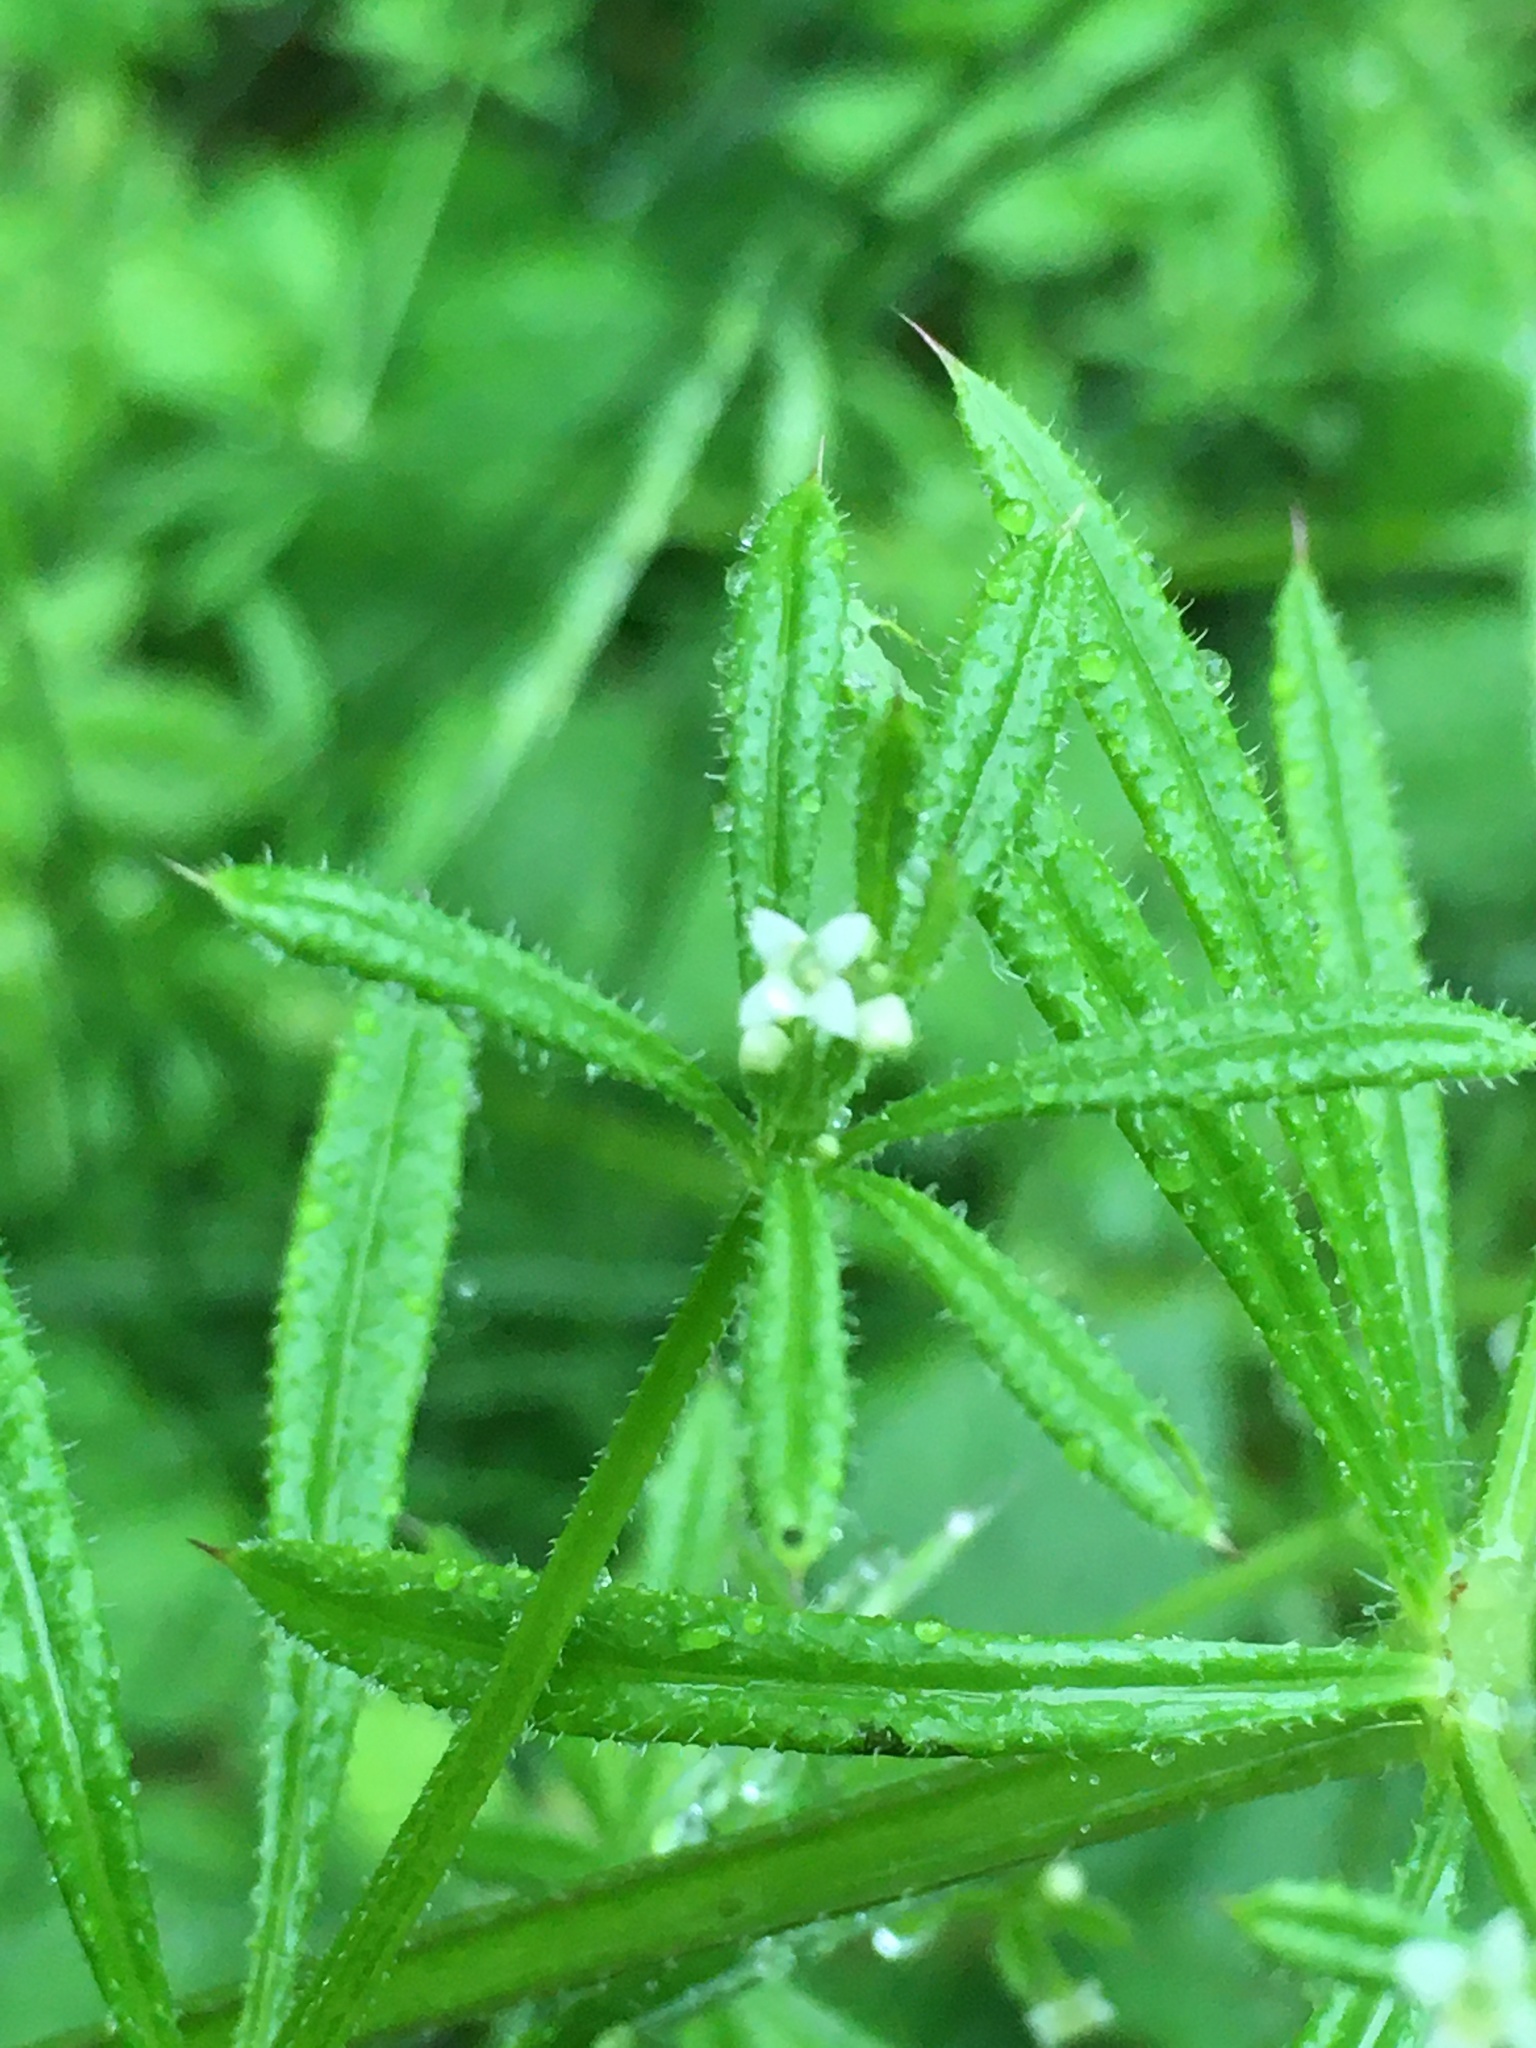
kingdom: Plantae
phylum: Tracheophyta
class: Magnoliopsida
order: Gentianales
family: Rubiaceae
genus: Galium
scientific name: Galium aparine
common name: Cleavers
